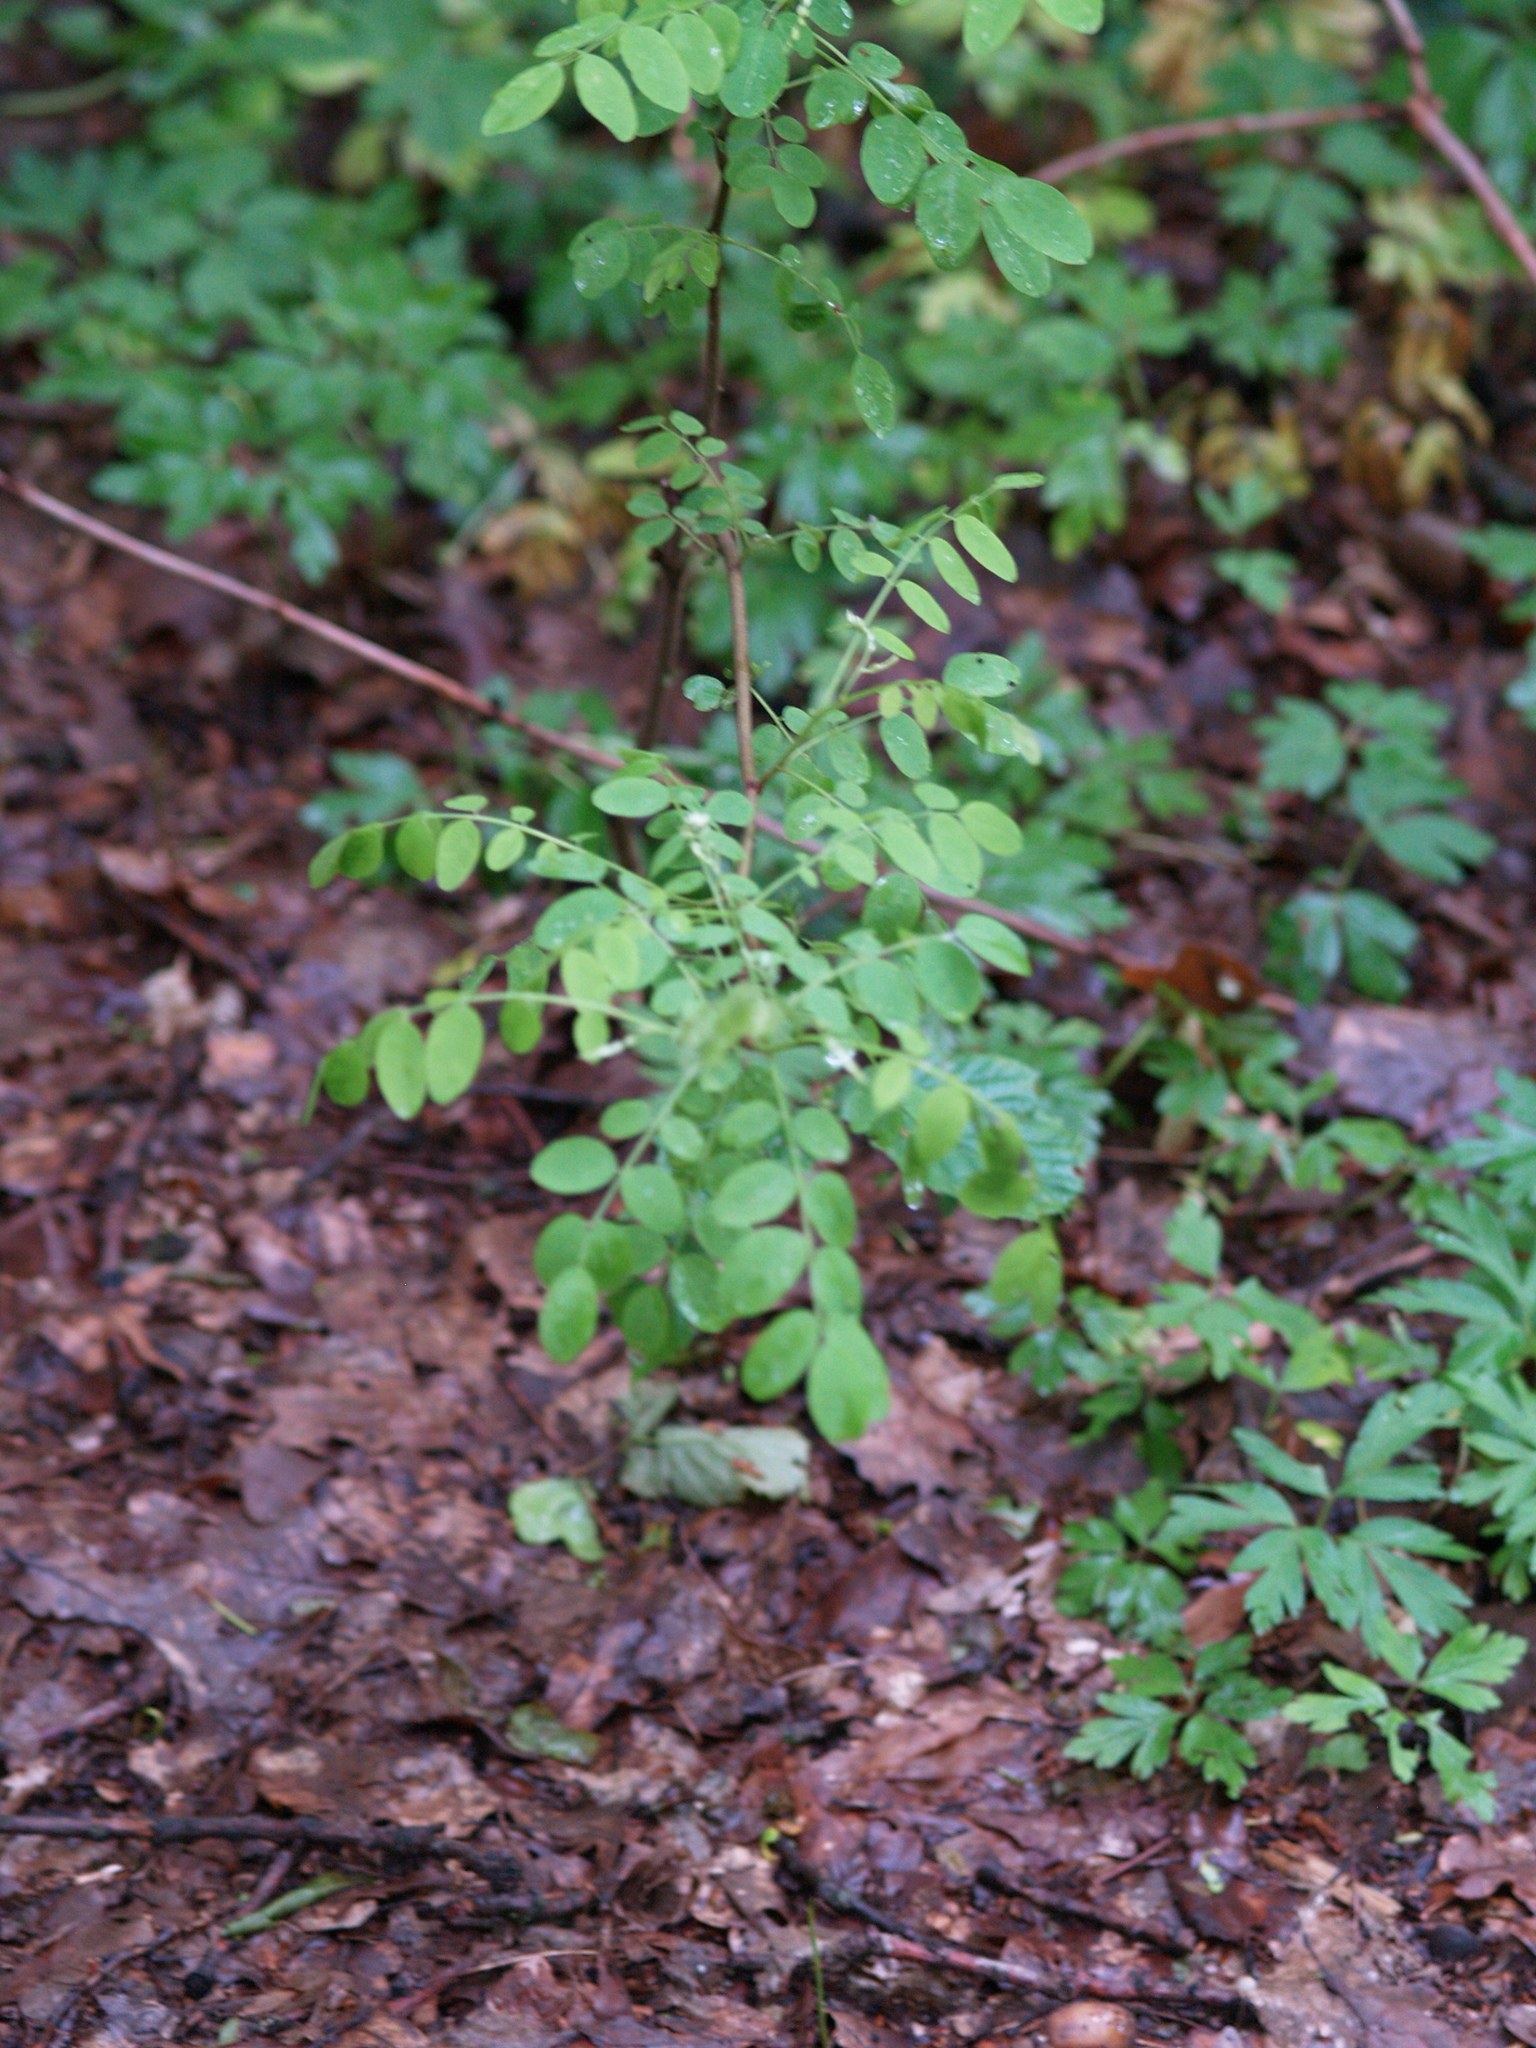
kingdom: Plantae
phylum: Tracheophyta
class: Magnoliopsida
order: Fabales
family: Fabaceae
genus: Robinia
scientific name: Robinia pseudoacacia
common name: Black locust
